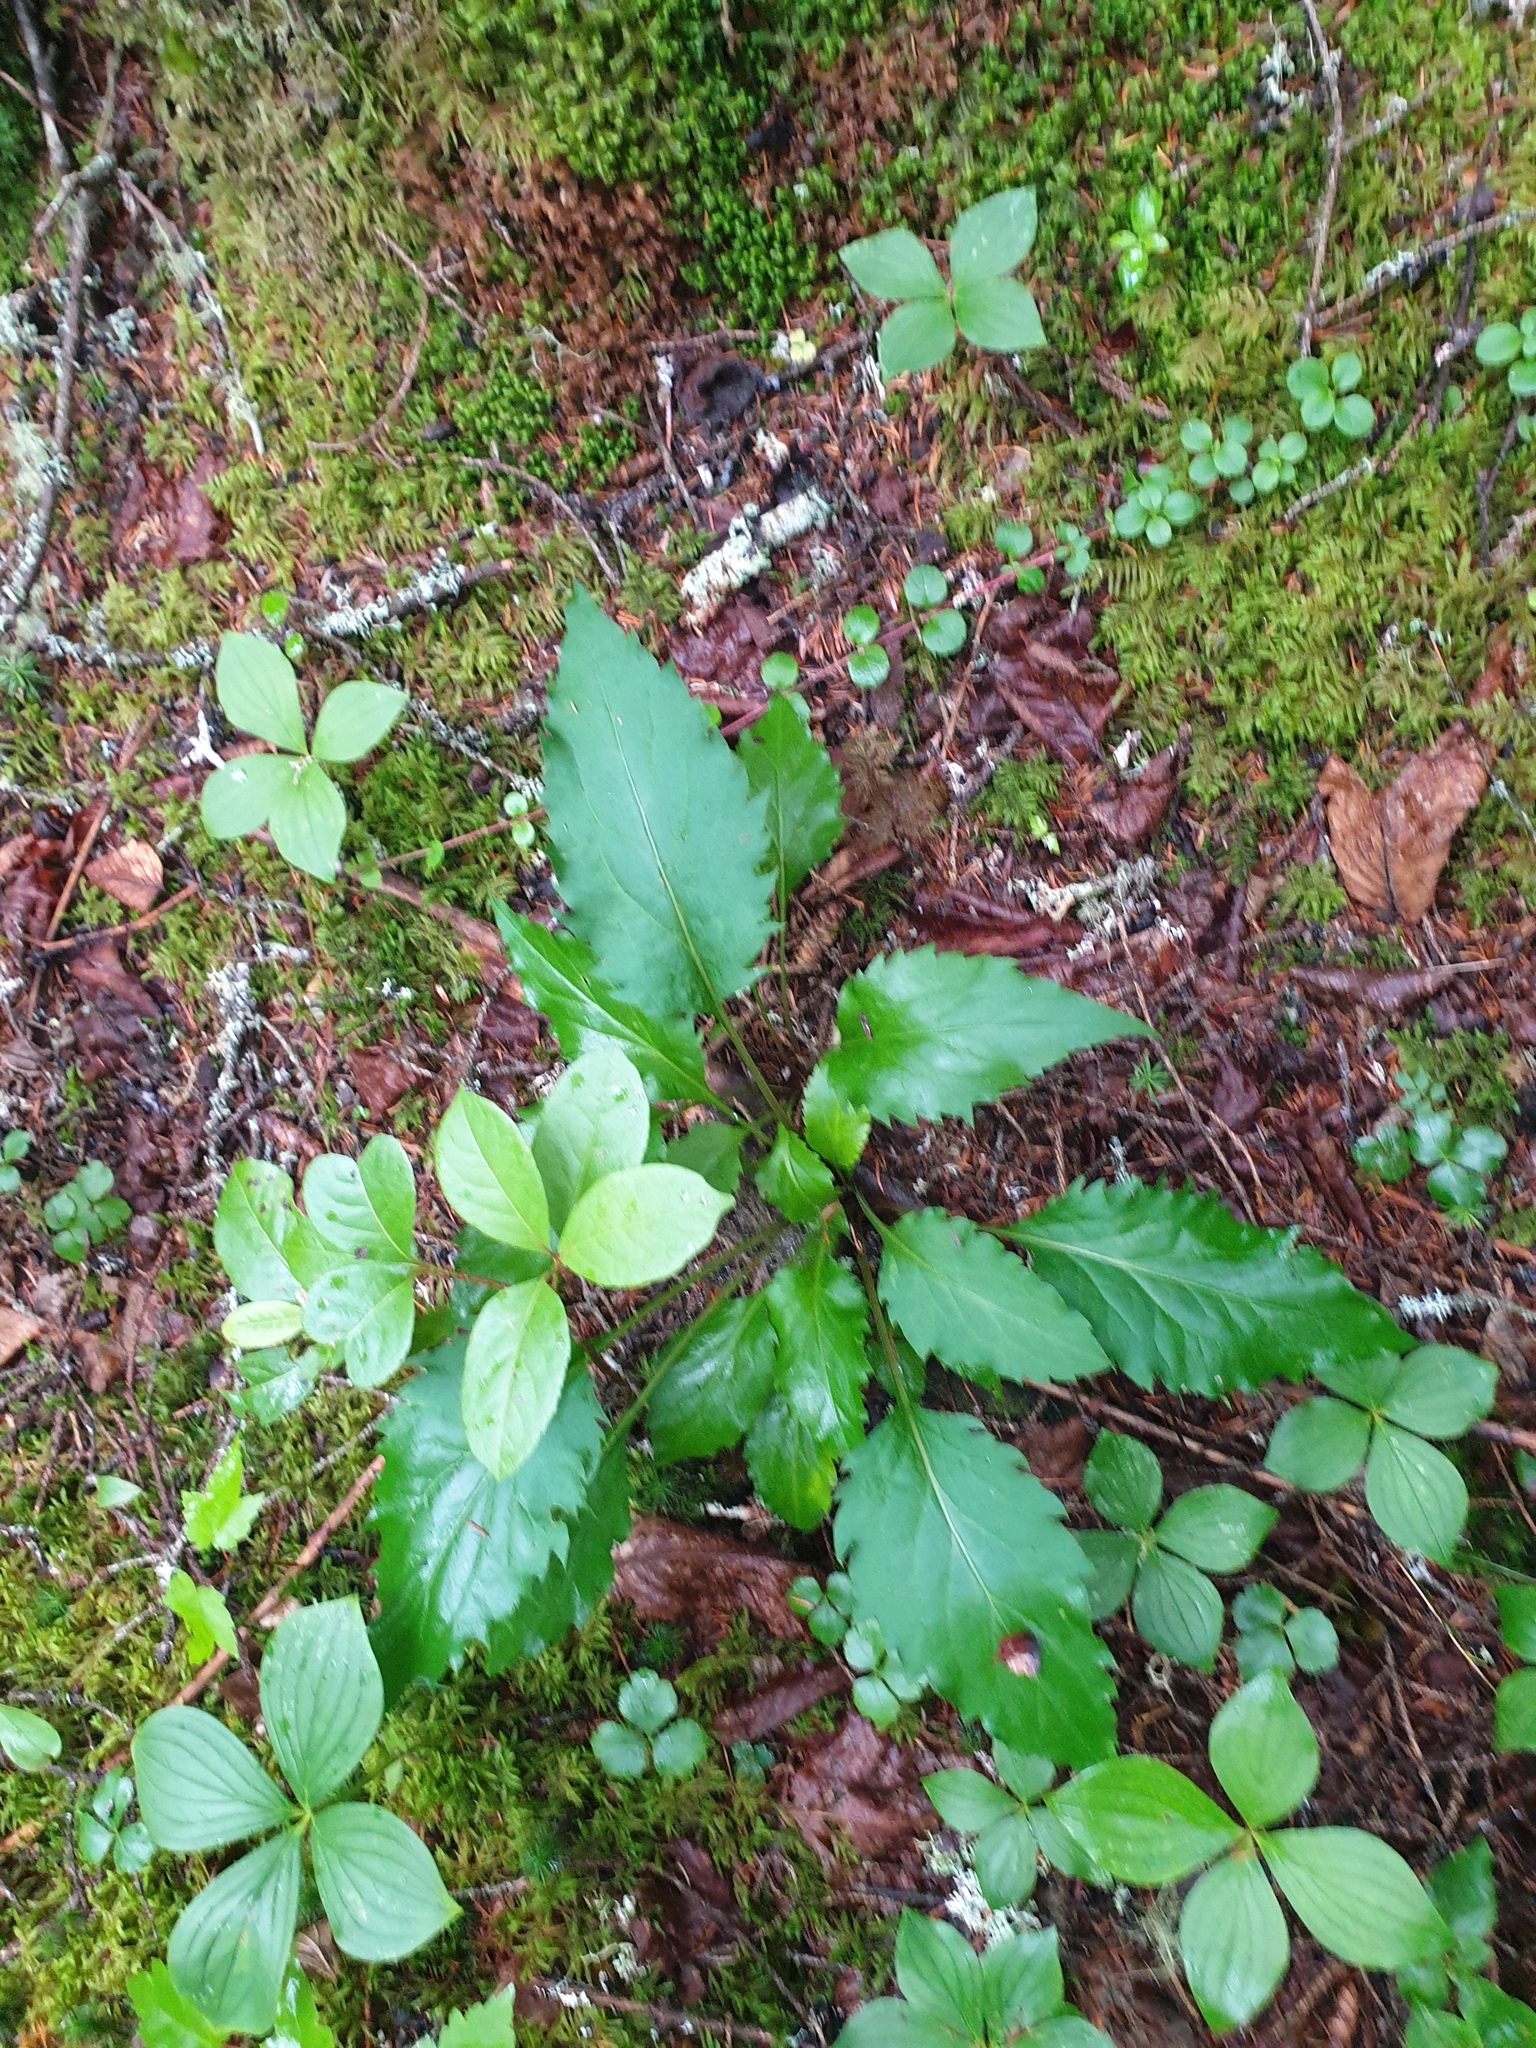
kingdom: Plantae
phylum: Tracheophyta
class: Magnoliopsida
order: Asterales
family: Asteraceae
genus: Solidago
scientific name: Solidago macrophylla
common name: Large-leaved goldenrod
